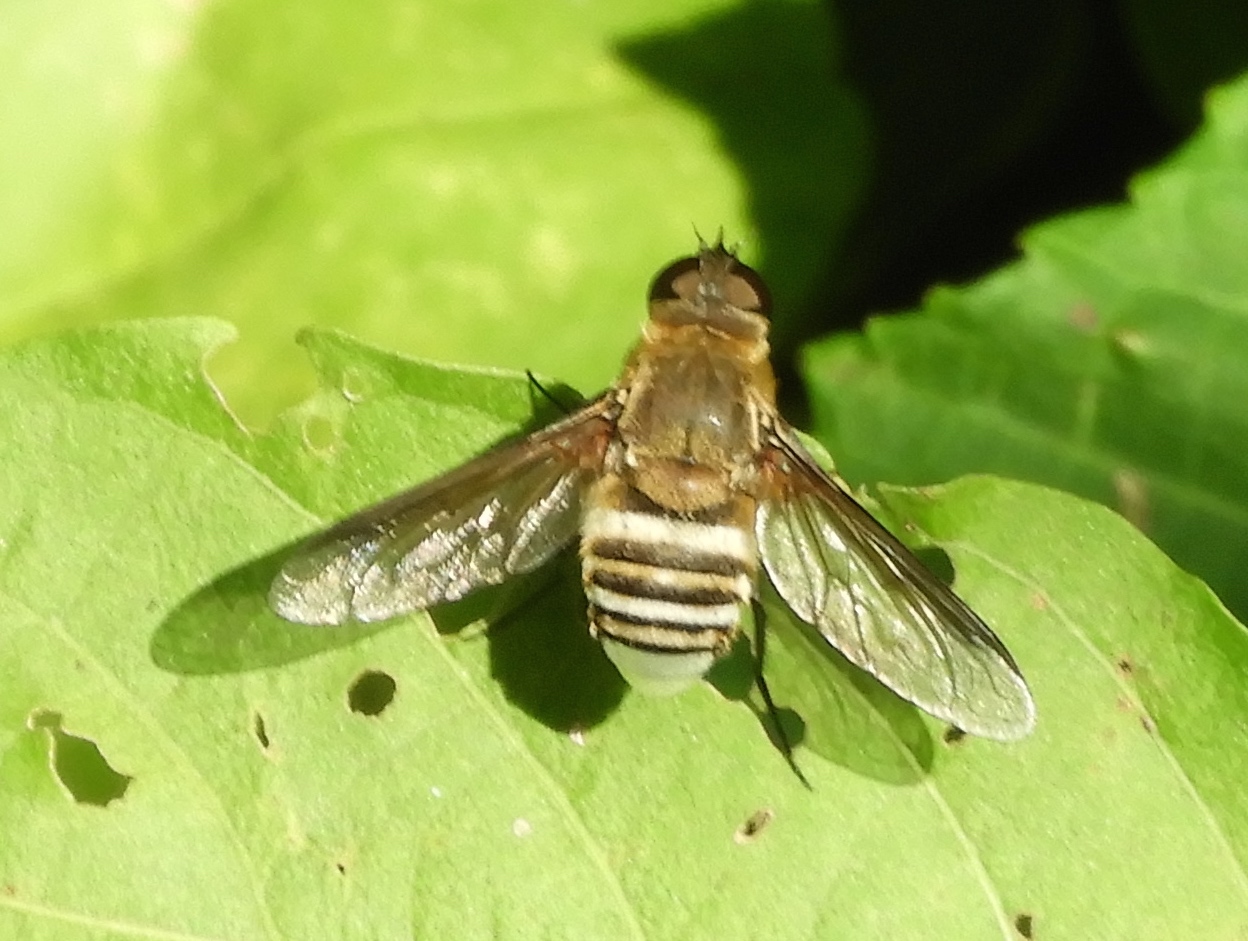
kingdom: Animalia
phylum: Arthropoda
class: Insecta
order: Diptera
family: Bombyliidae
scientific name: Bombyliidae
